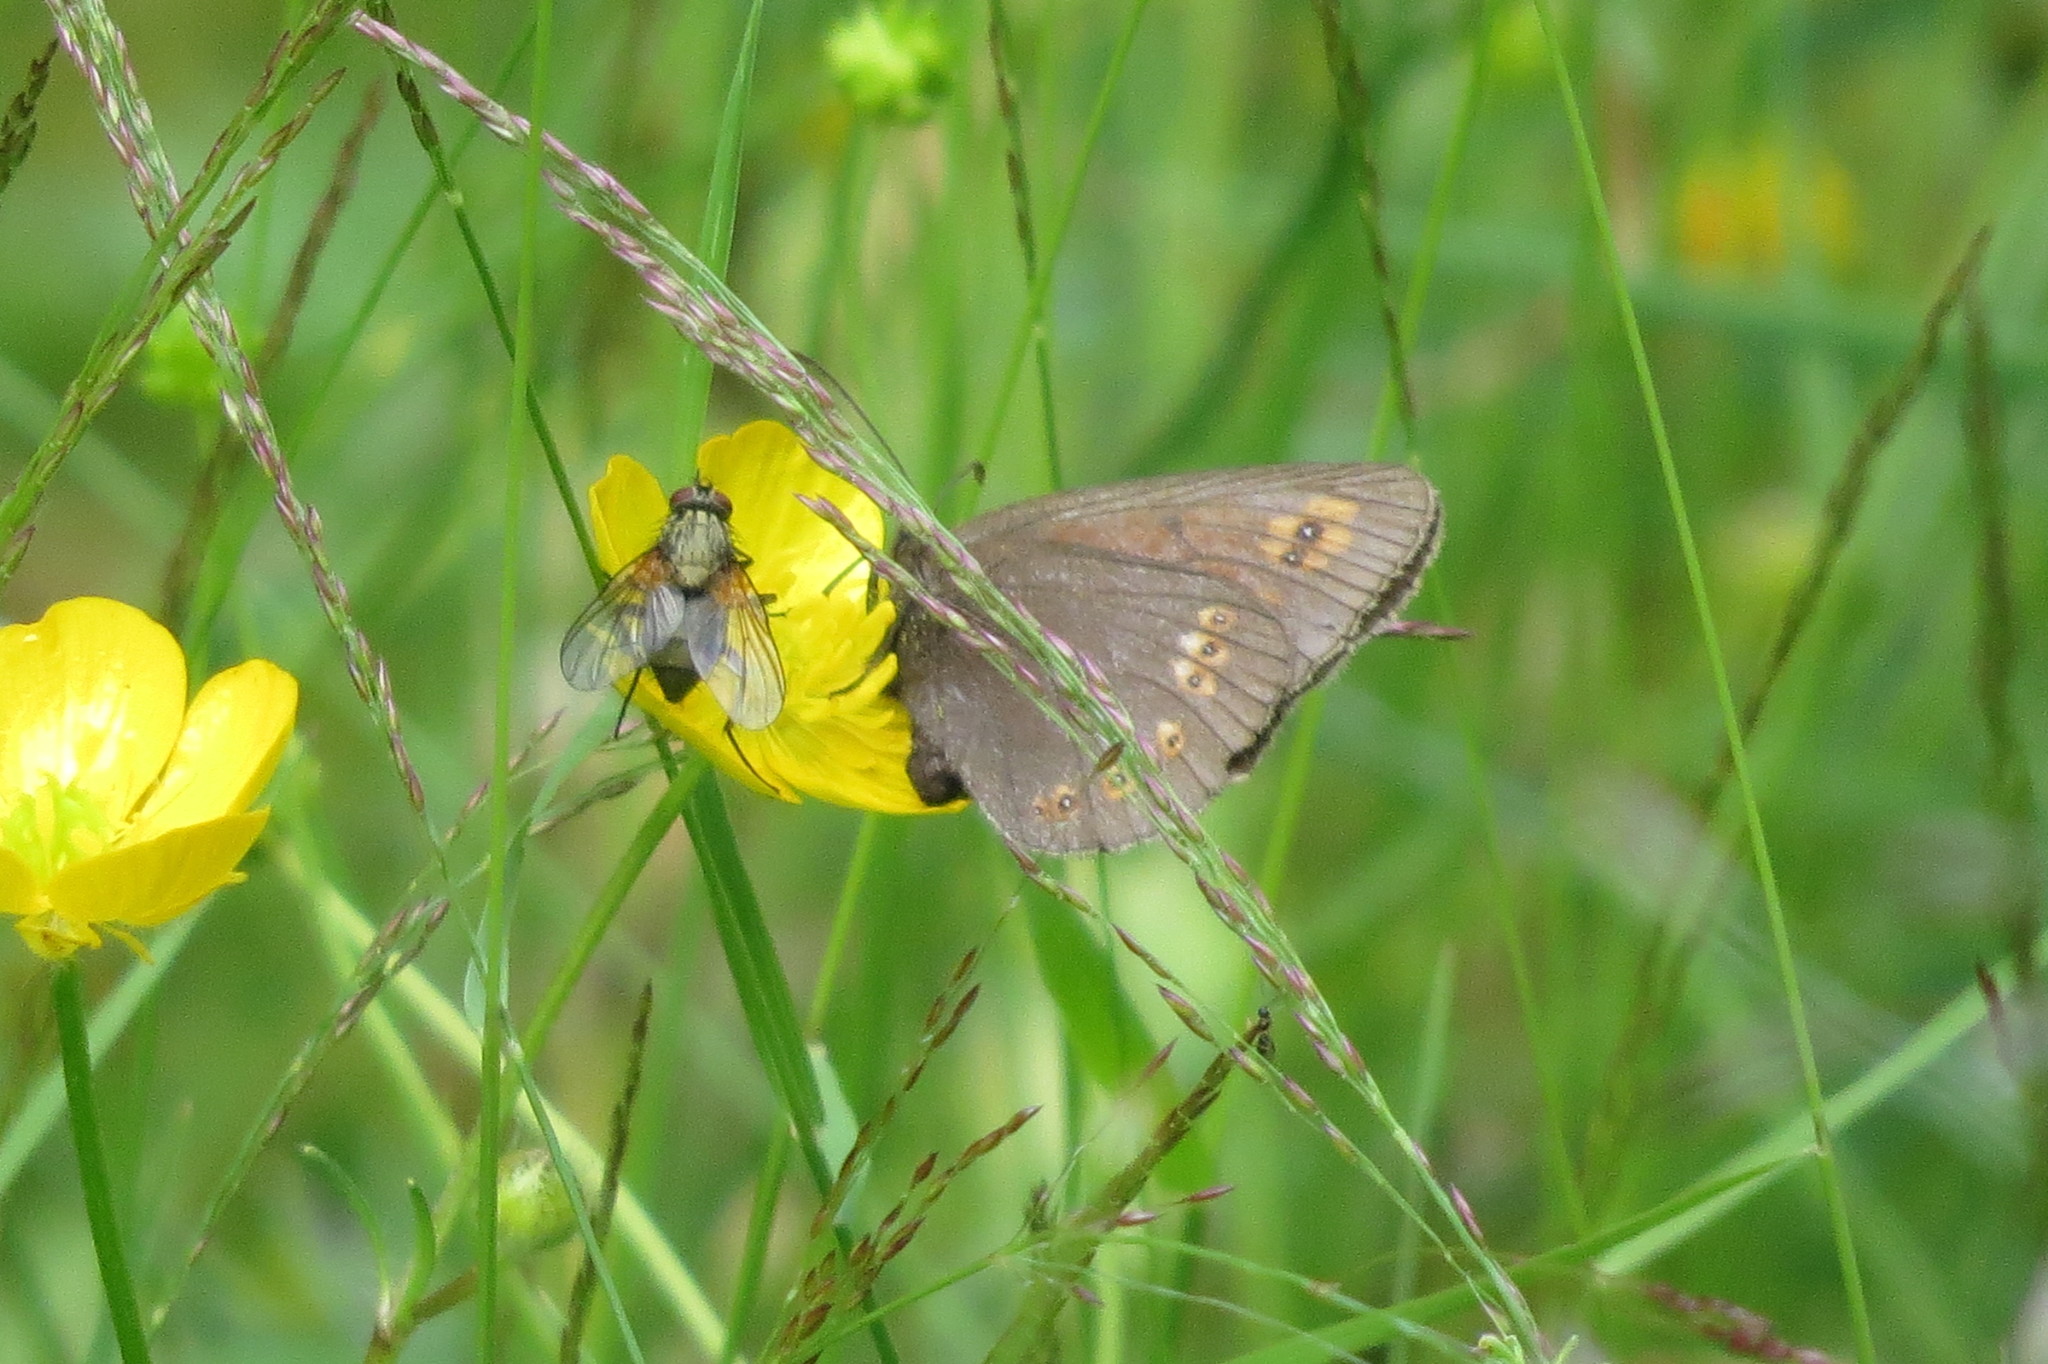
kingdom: Animalia
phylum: Arthropoda
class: Insecta
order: Lepidoptera
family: Nymphalidae
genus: Erebia
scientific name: Erebia alberganus
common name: Almond-eyed ringlet
